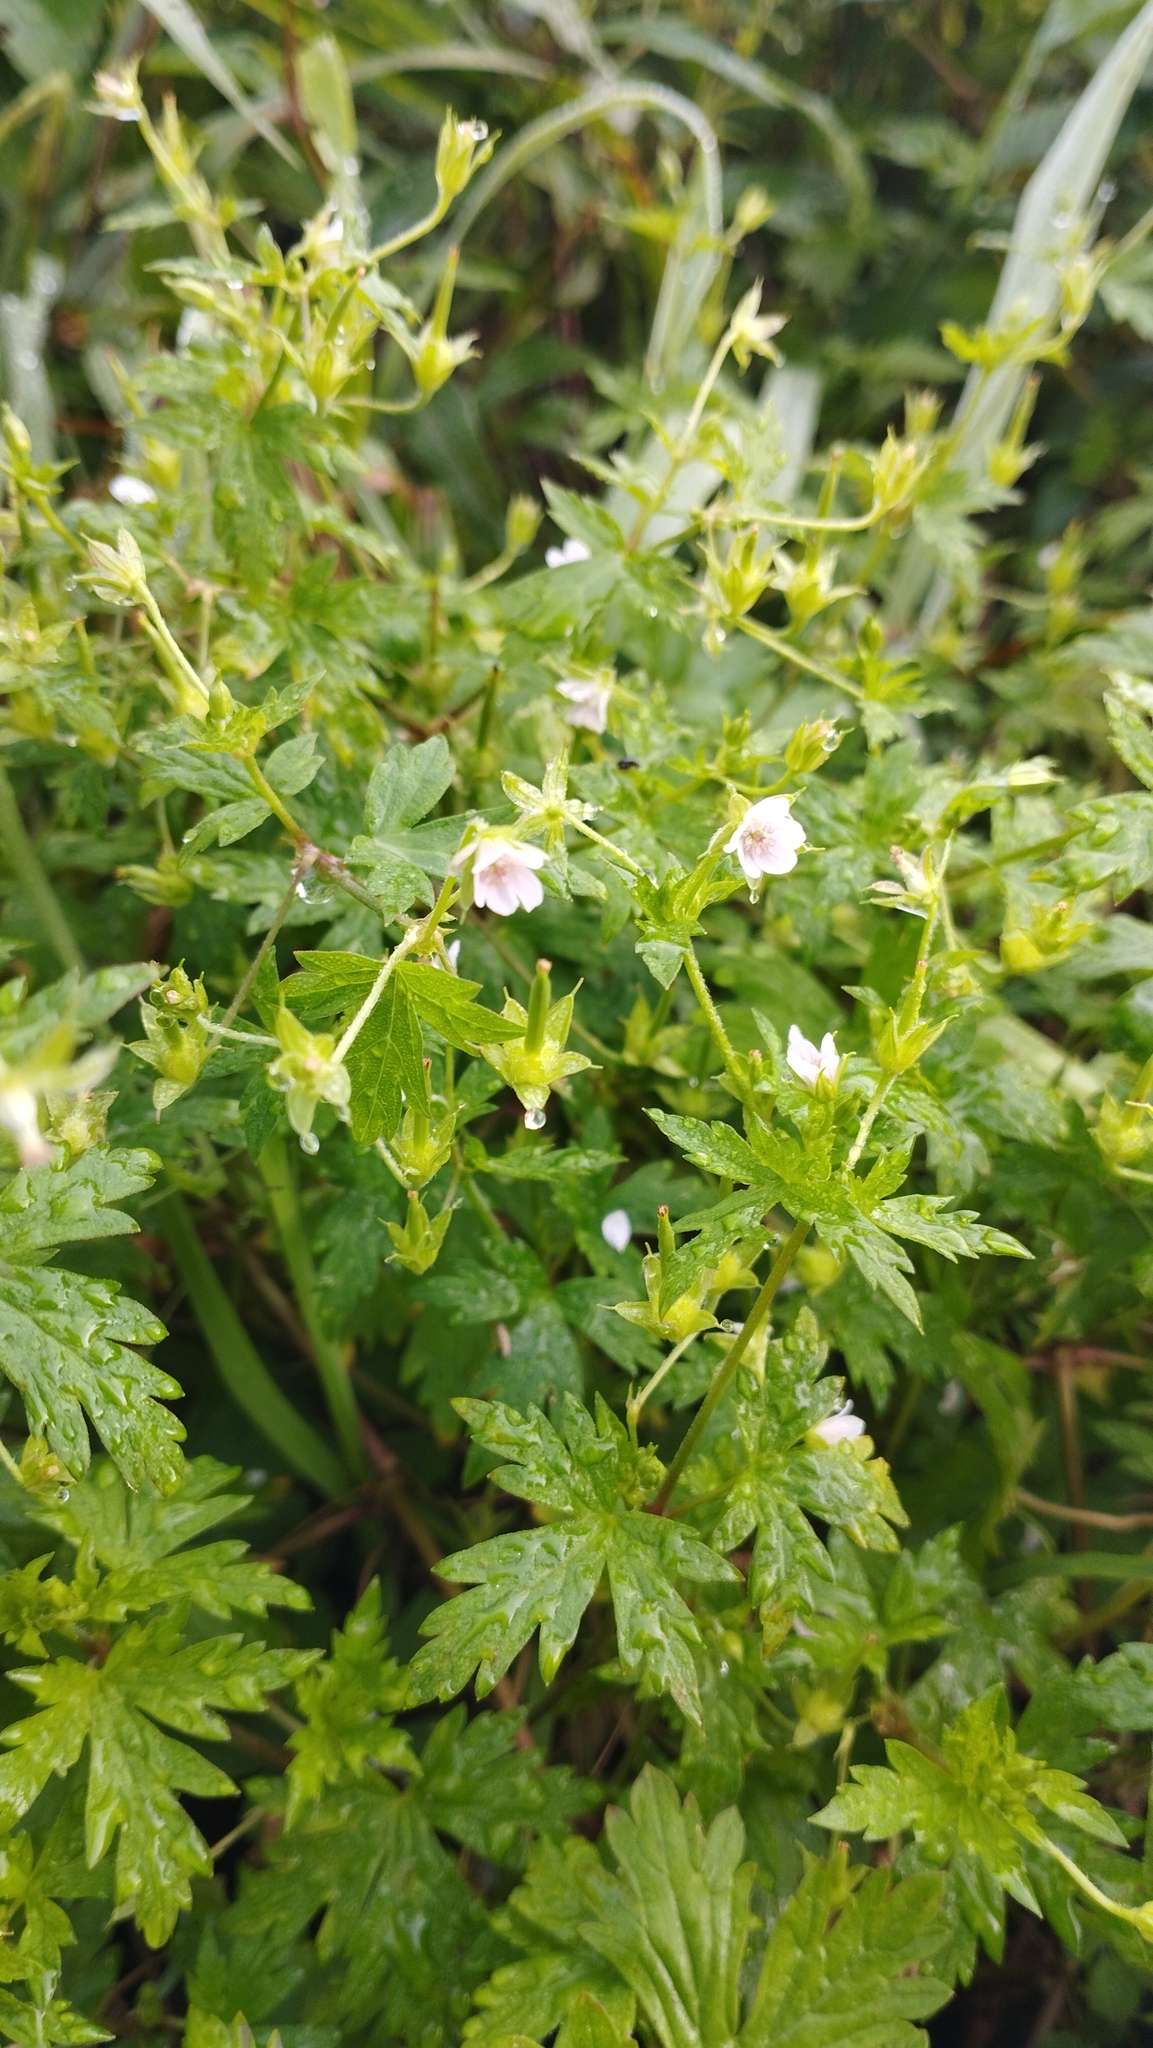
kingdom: Plantae
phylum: Tracheophyta
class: Magnoliopsida
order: Geraniales
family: Geraniaceae
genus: Geranium
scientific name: Geranium sibiricum
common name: Siberian crane's-bill
